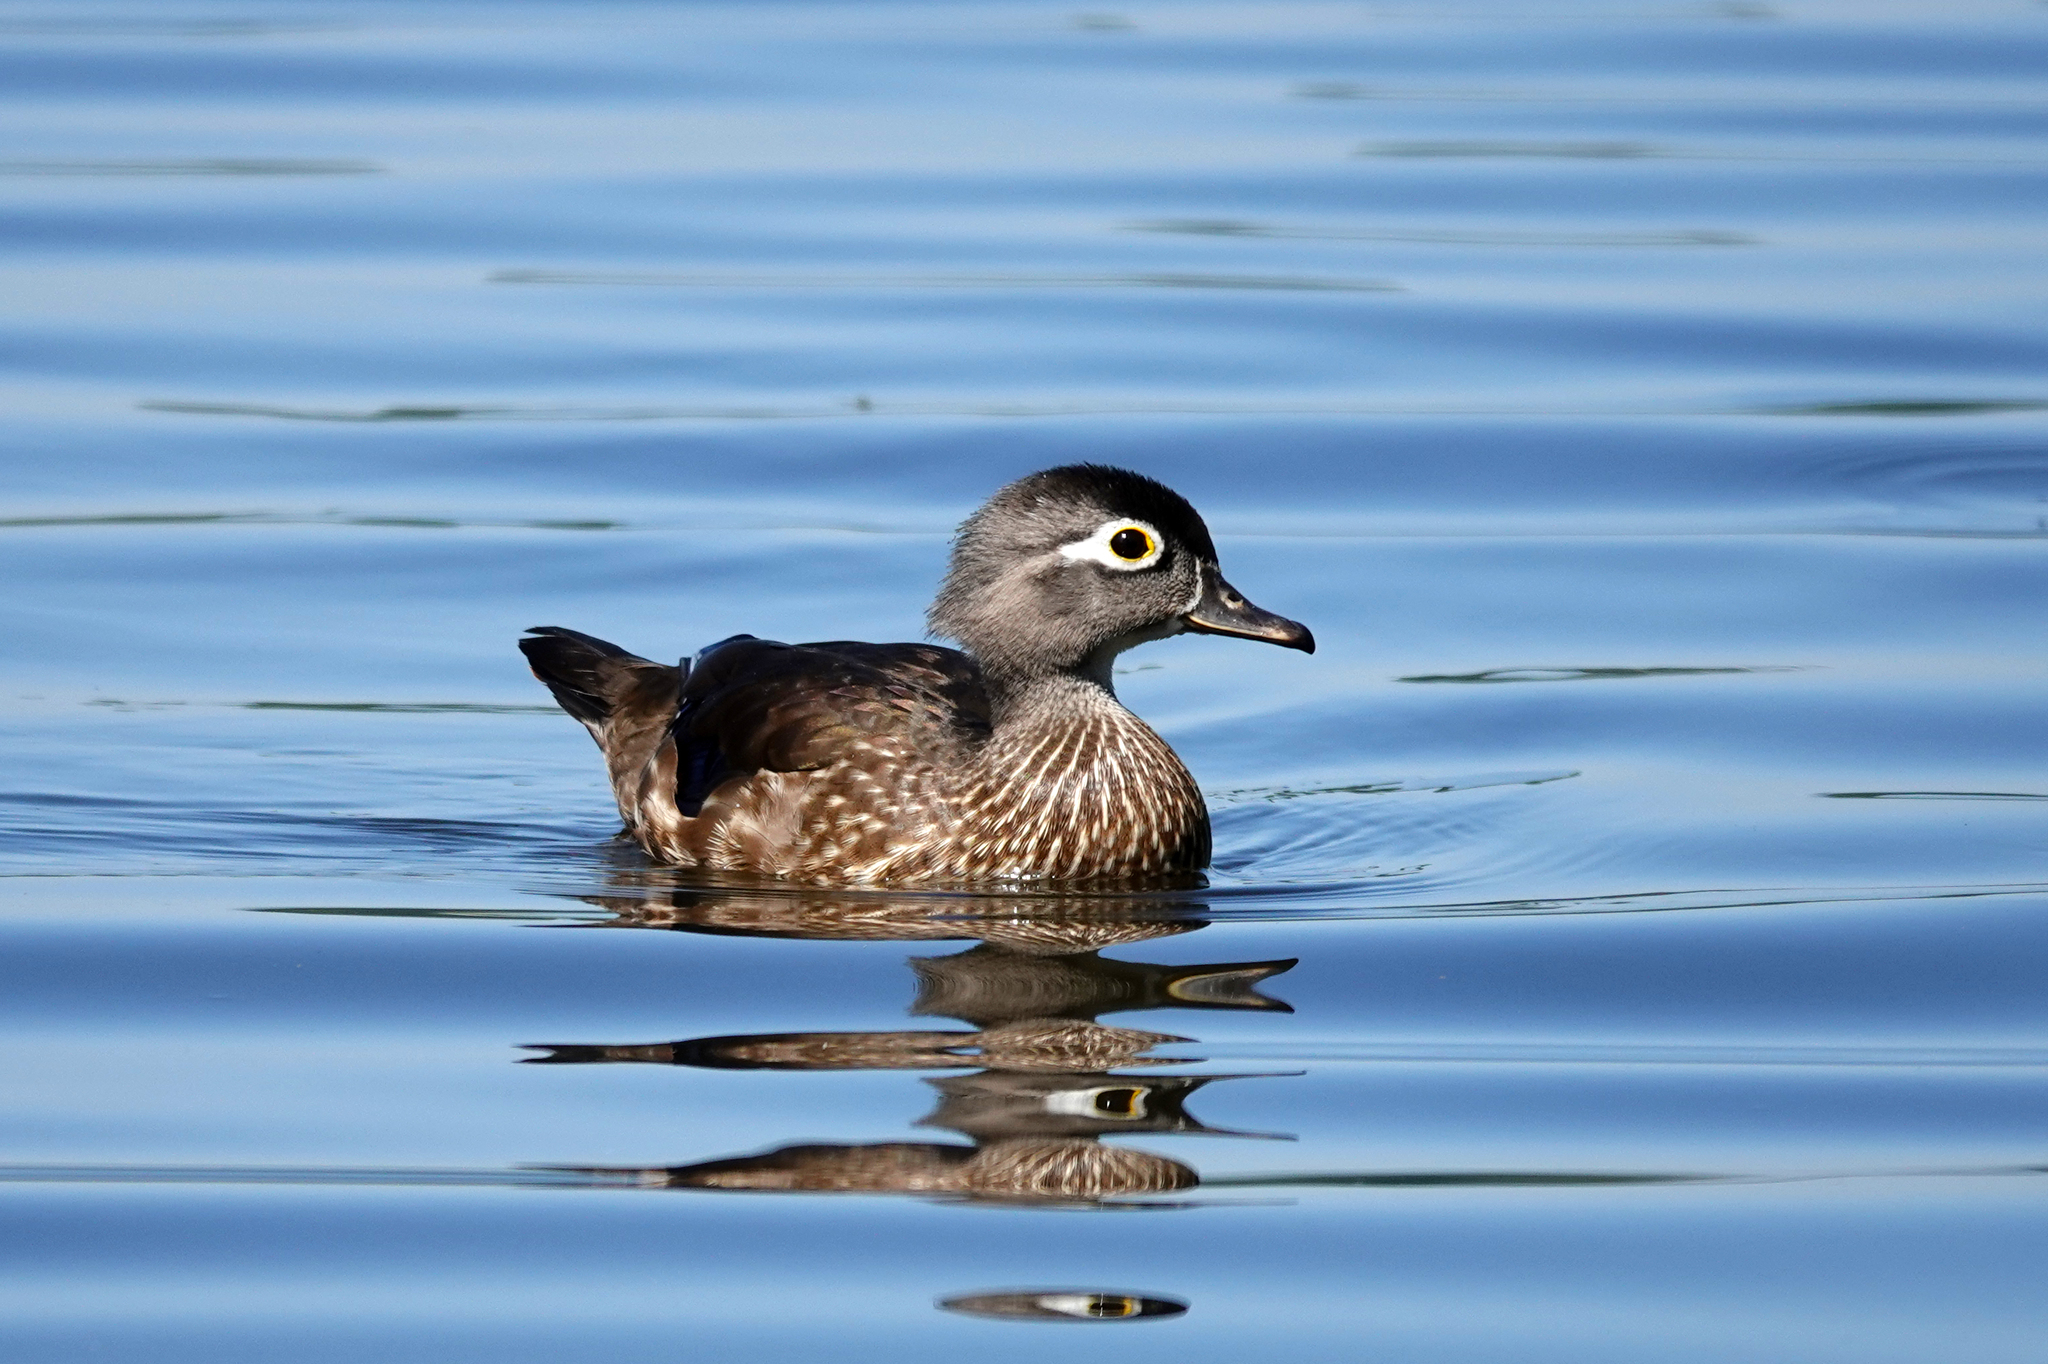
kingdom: Animalia
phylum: Chordata
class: Aves
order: Anseriformes
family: Anatidae
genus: Aix
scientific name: Aix sponsa
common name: Wood duck
